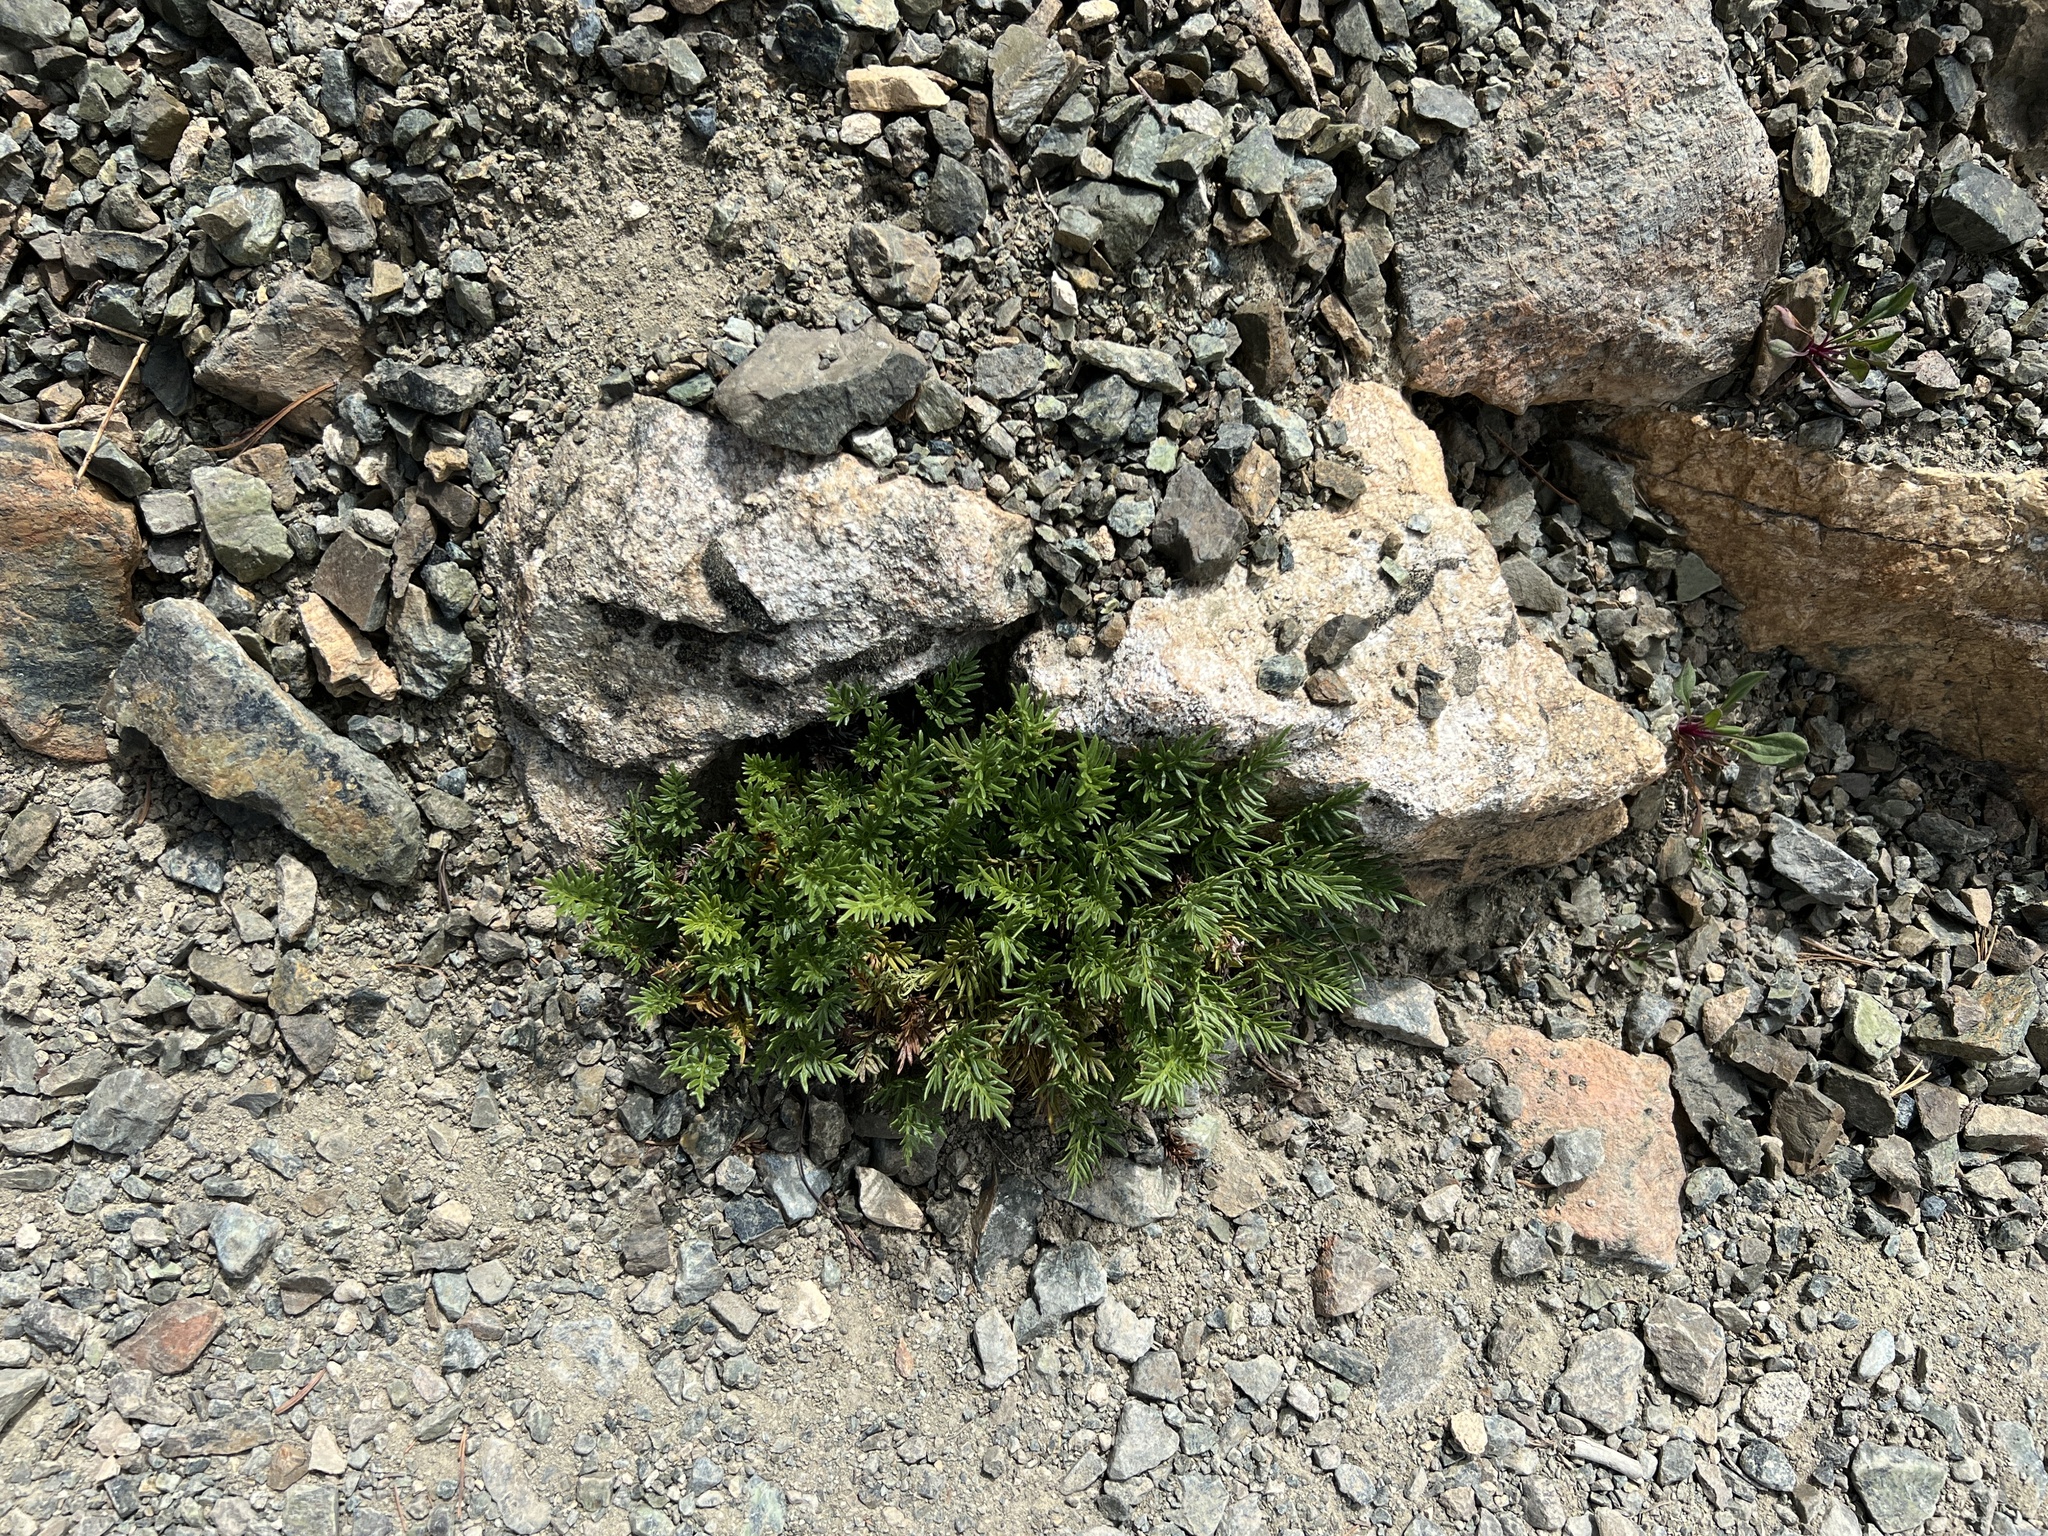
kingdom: Plantae
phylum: Tracheophyta
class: Polypodiopsida
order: Polypodiales
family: Pteridaceae
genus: Aspidotis
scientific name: Aspidotis densa
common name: Indian's dream
